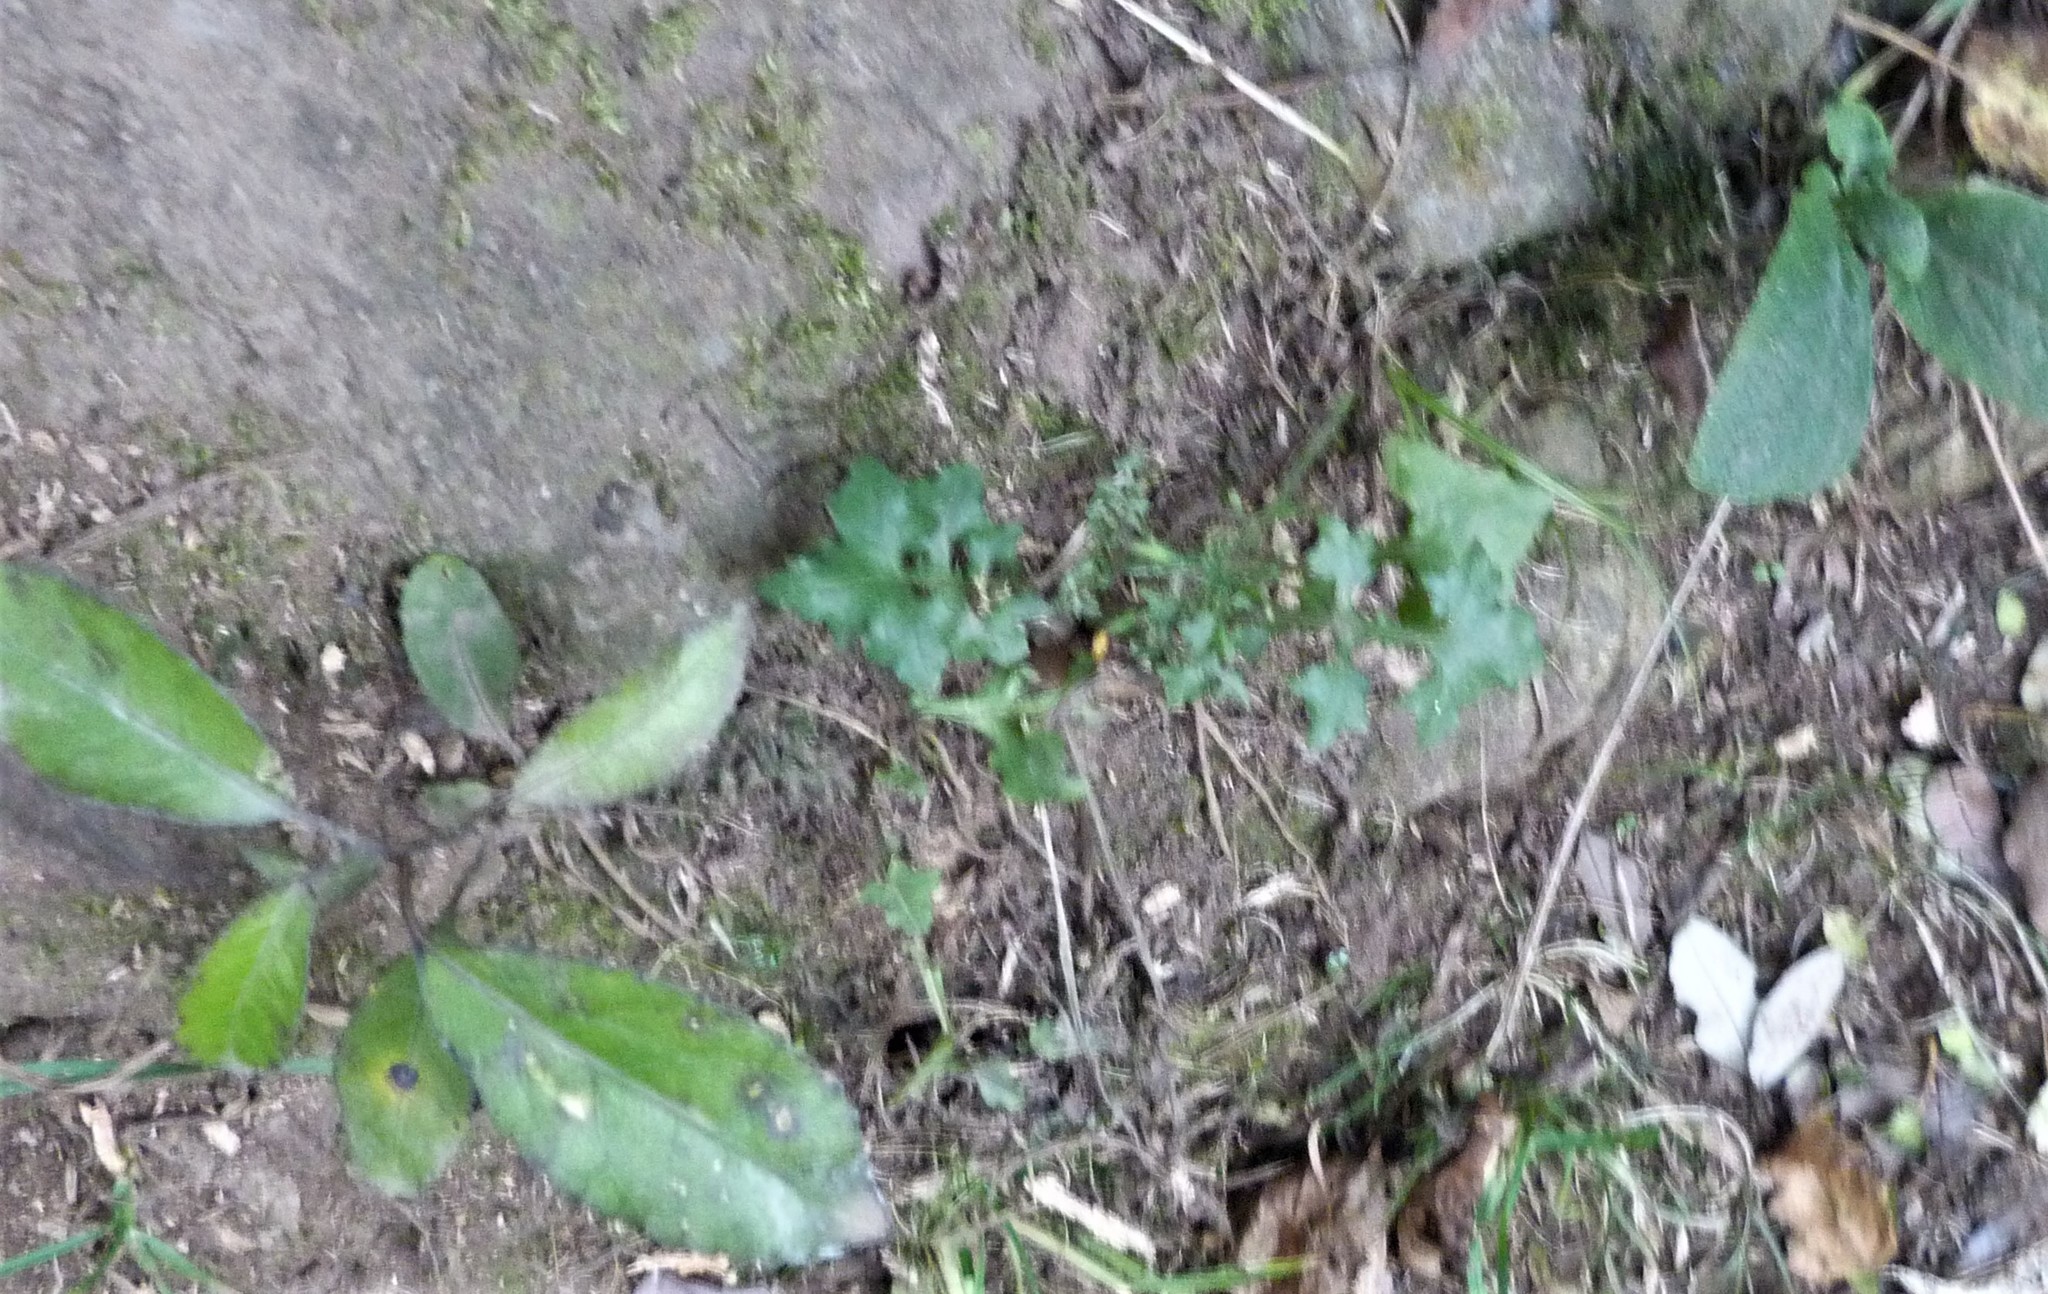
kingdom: Plantae
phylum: Tracheophyta
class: Magnoliopsida
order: Asterales
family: Asteraceae
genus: Mycelis
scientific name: Mycelis muralis
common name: Wall lettuce
